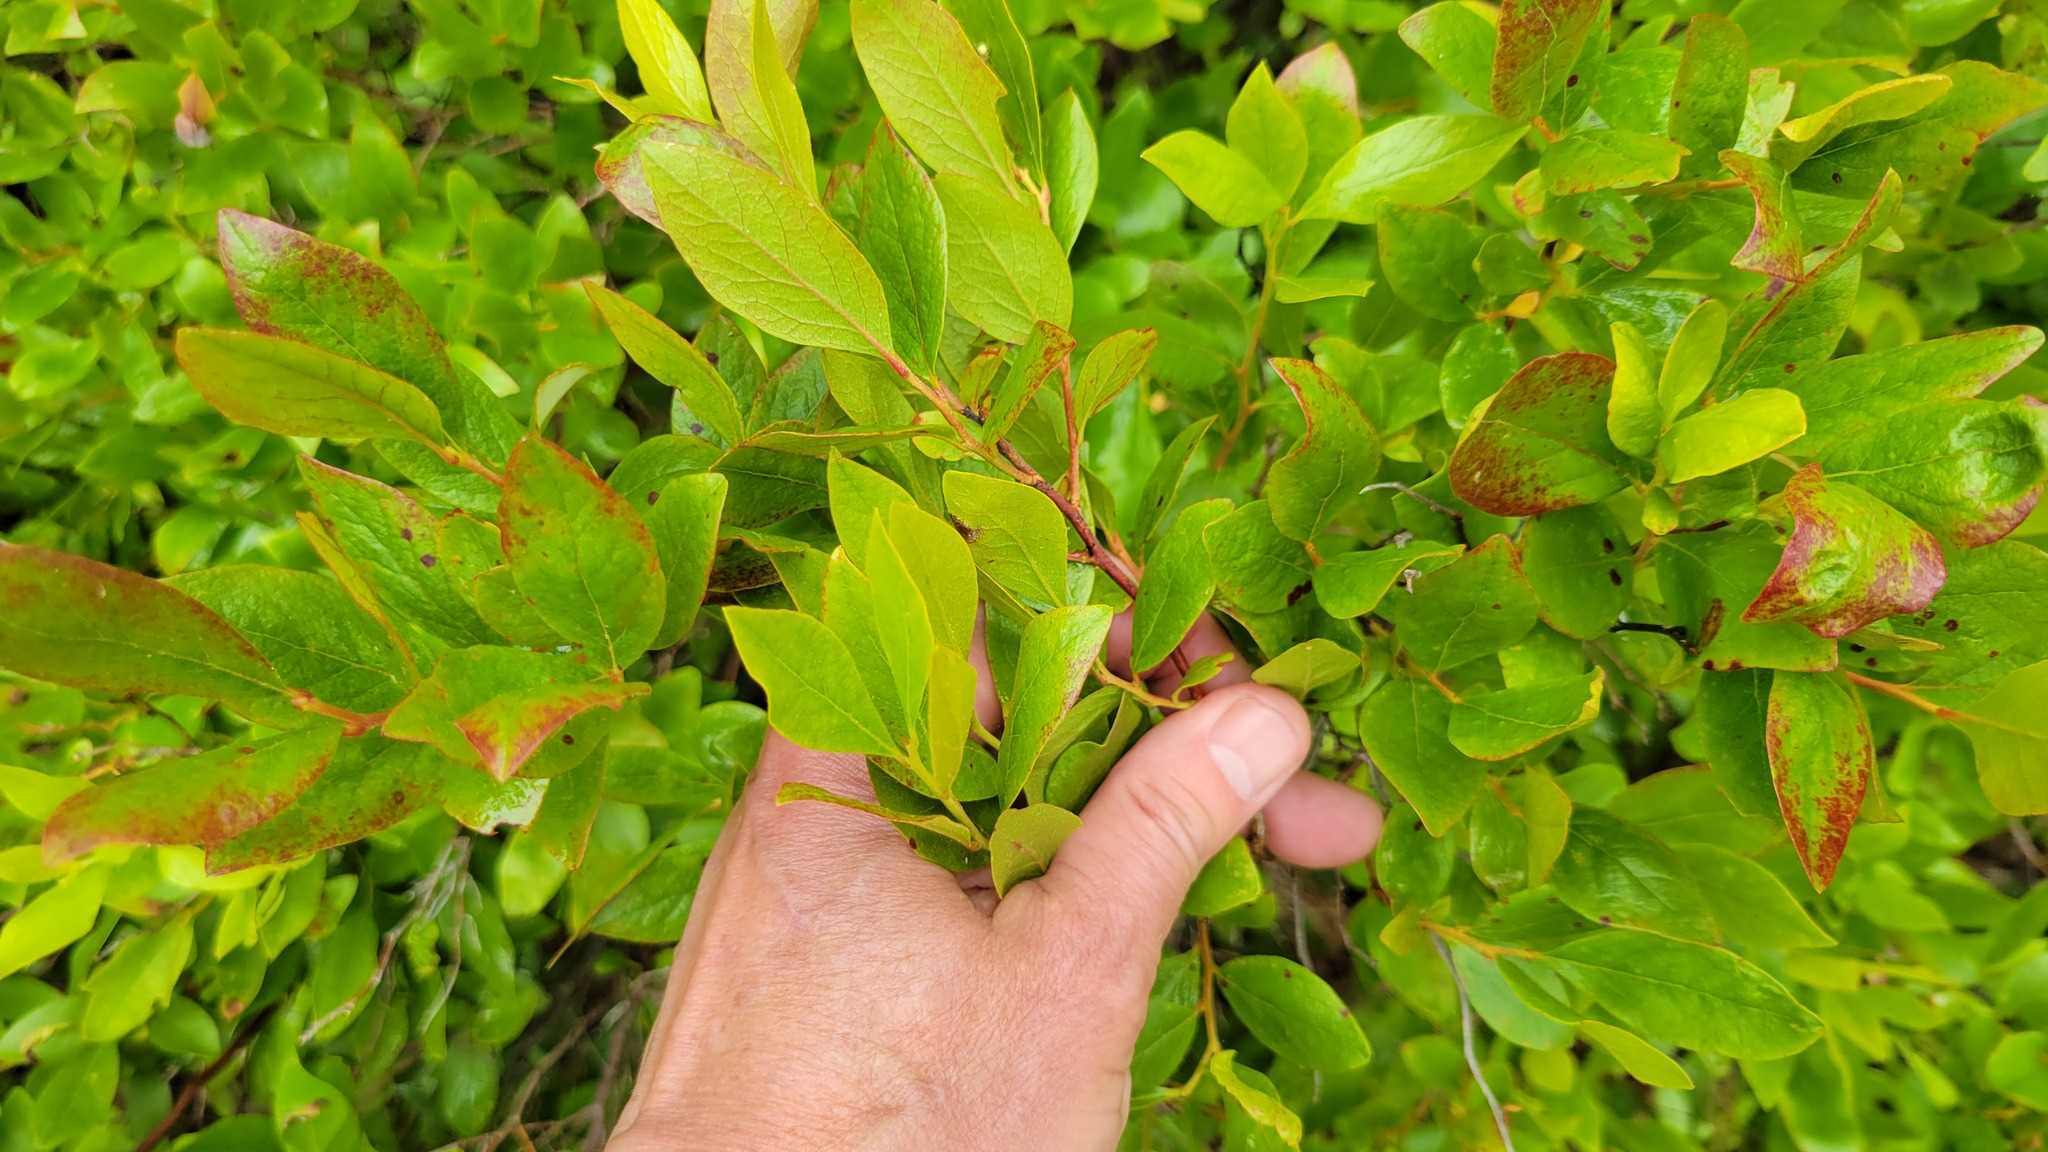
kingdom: Plantae
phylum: Tracheophyta
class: Magnoliopsida
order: Ericales
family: Ericaceae
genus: Gaylussacia
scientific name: Gaylussacia baccata
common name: Black huckleberry
